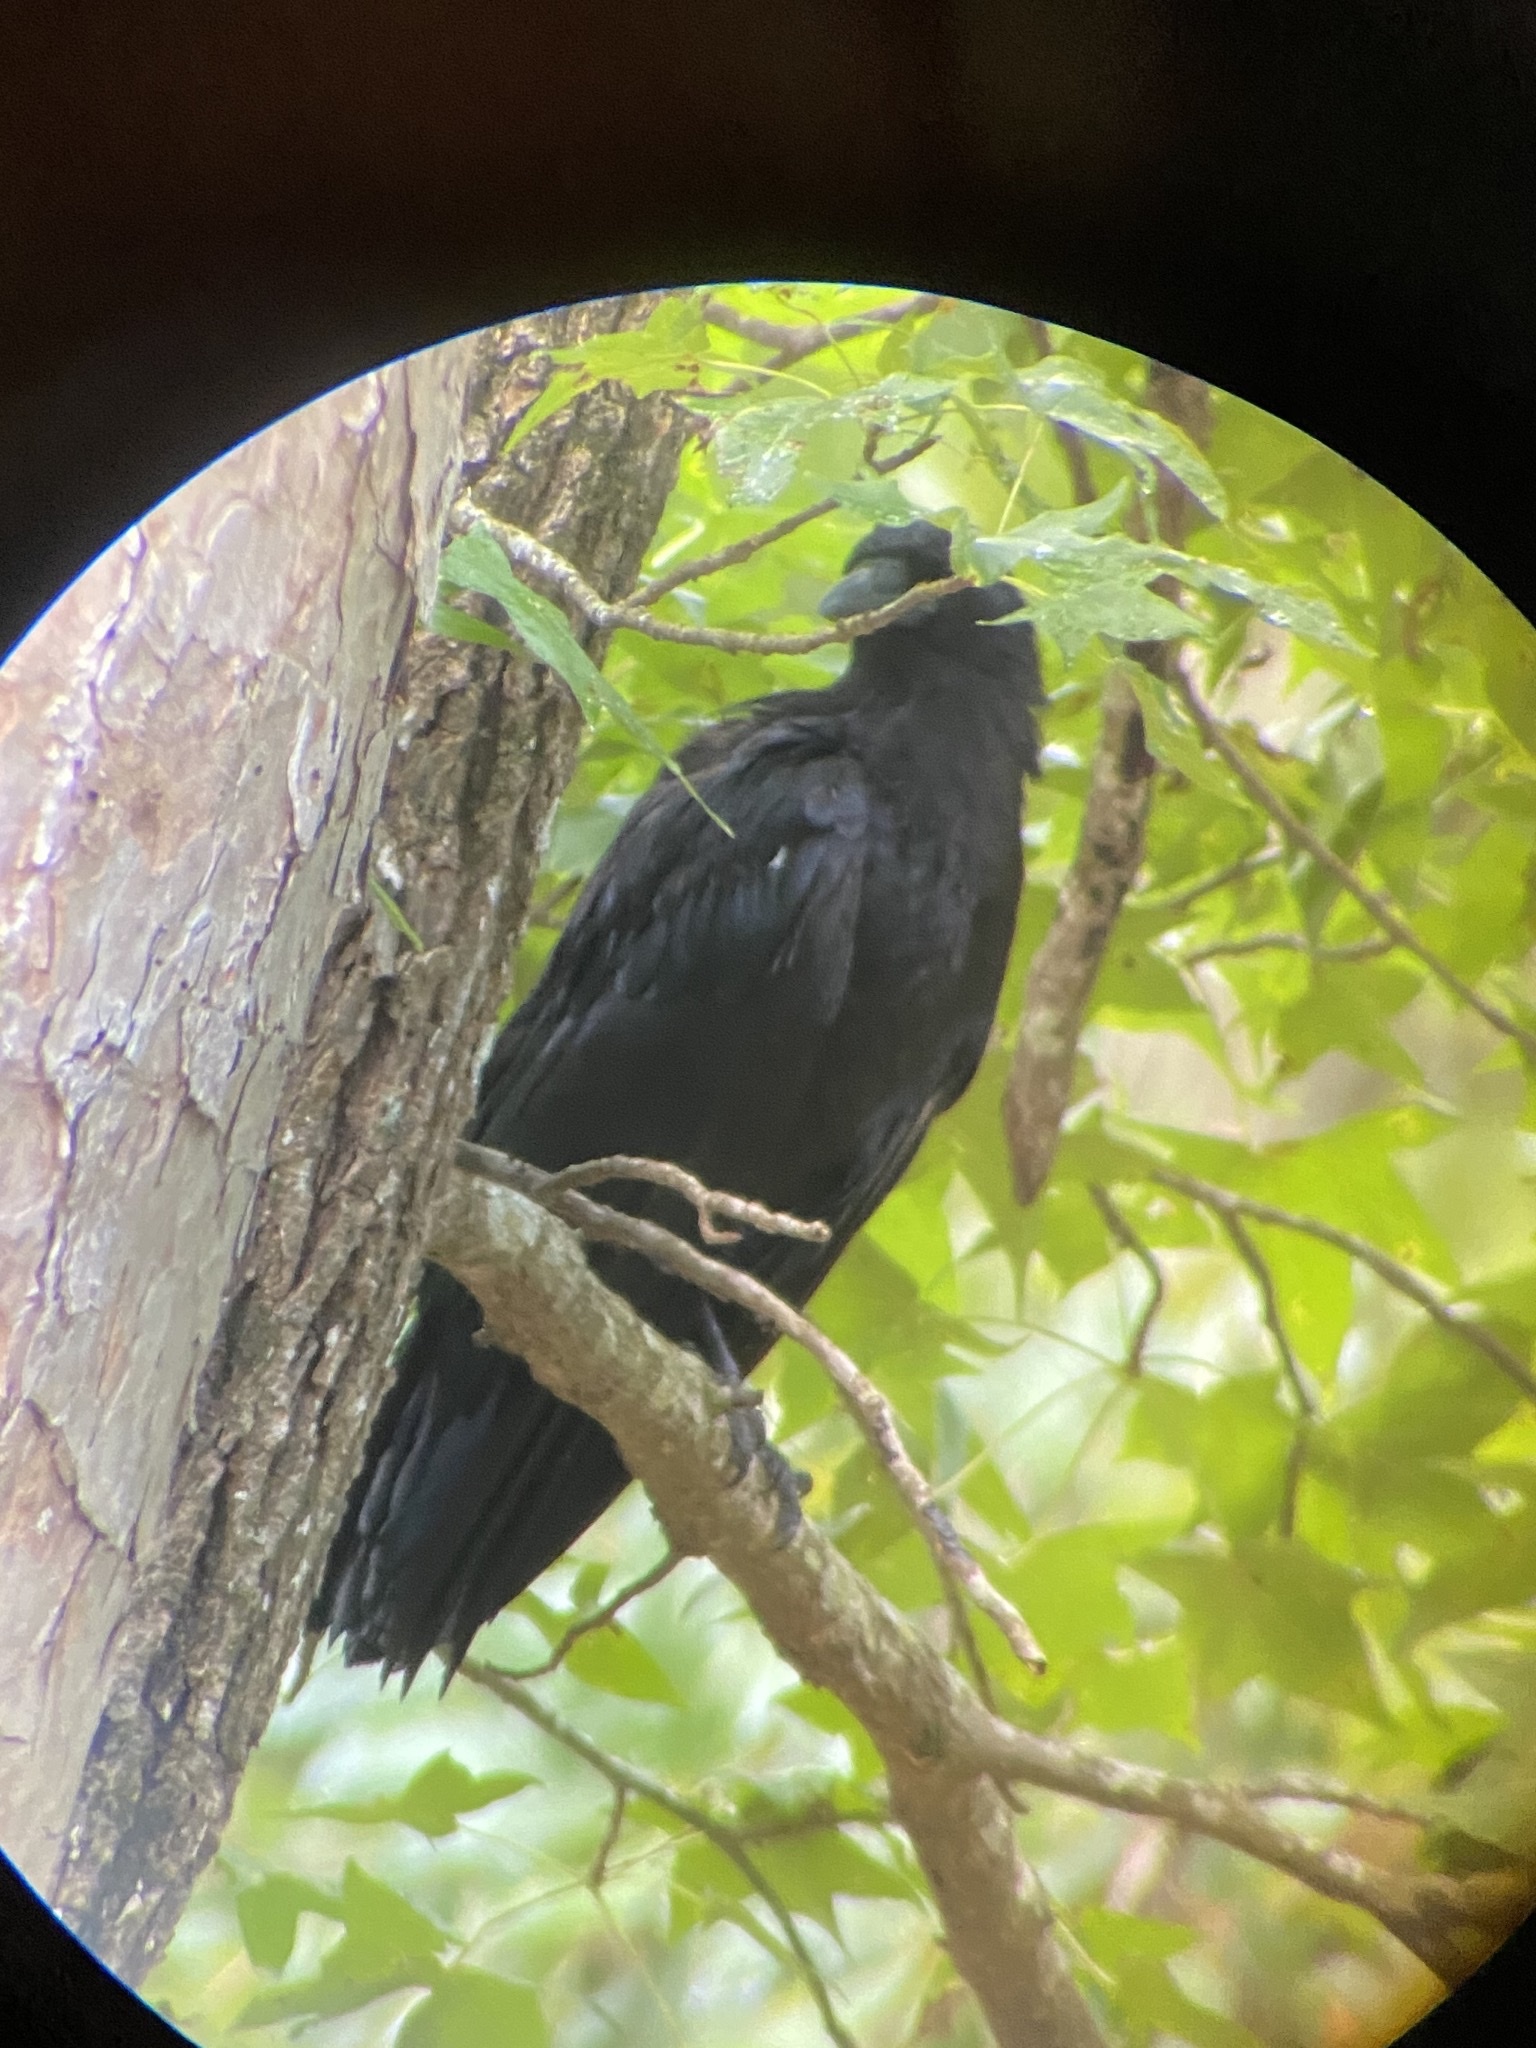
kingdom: Animalia
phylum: Chordata
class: Aves
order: Passeriformes
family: Corvidae
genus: Corvus
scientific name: Corvus brachyrhynchos
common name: American crow
